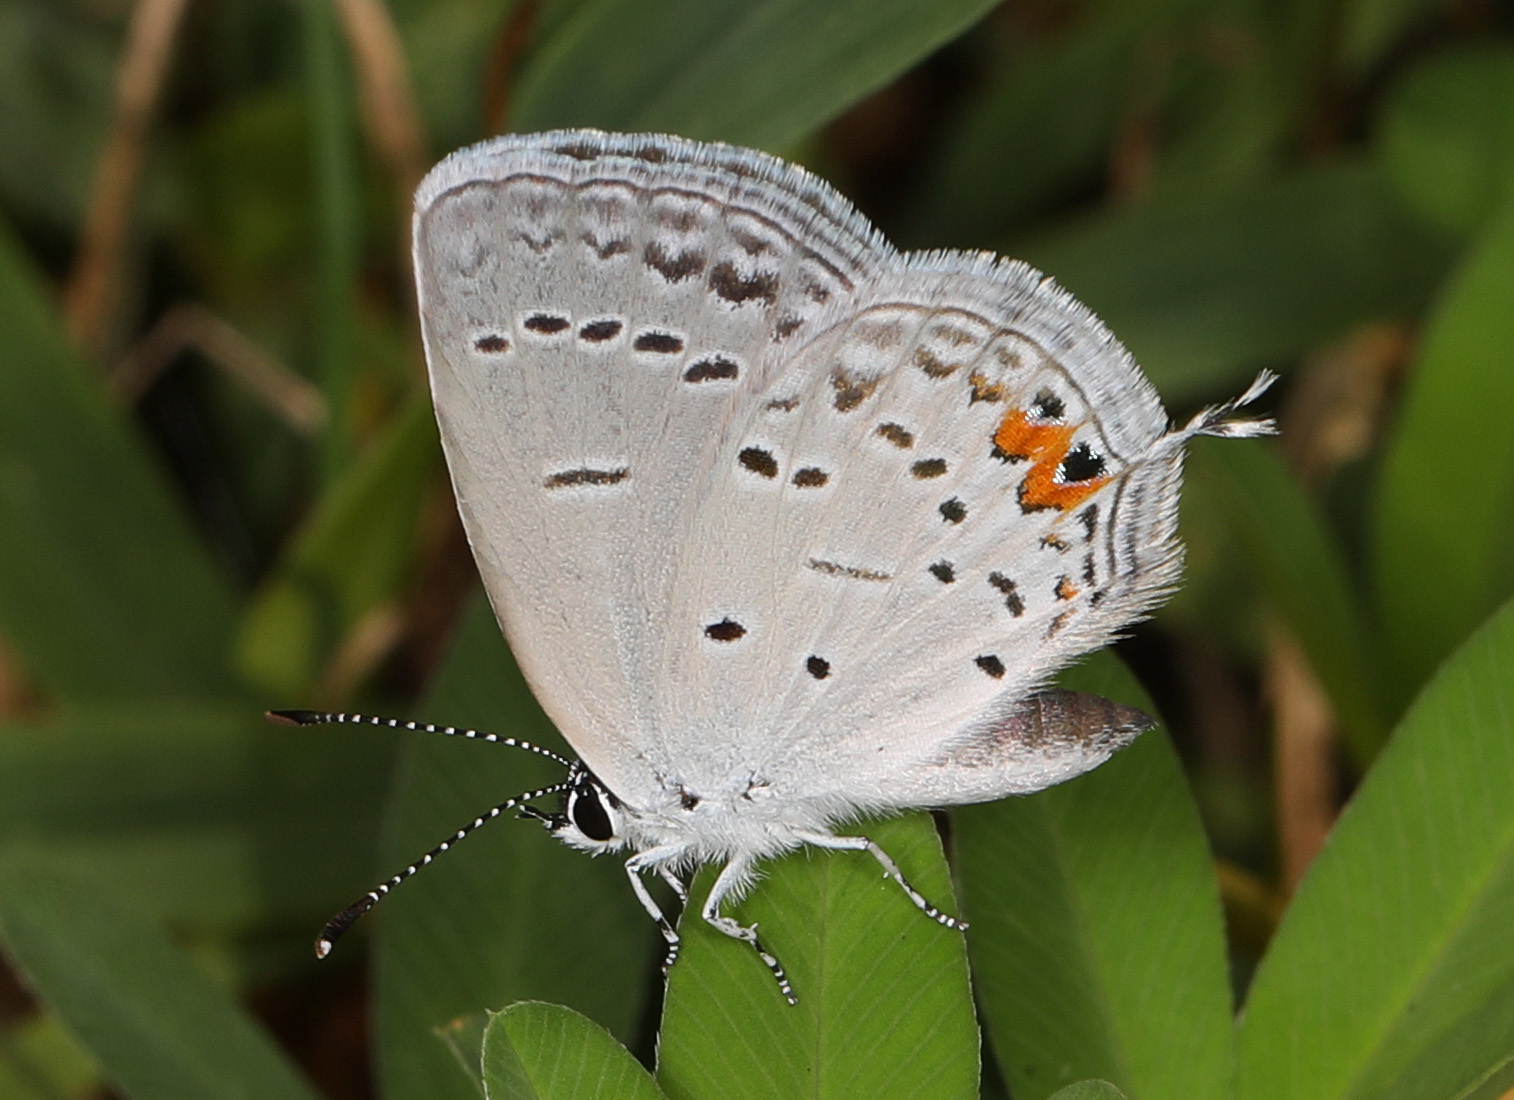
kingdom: Animalia
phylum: Arthropoda
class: Insecta
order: Lepidoptera
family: Lycaenidae
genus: Elkalyce
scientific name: Elkalyce comyntas
